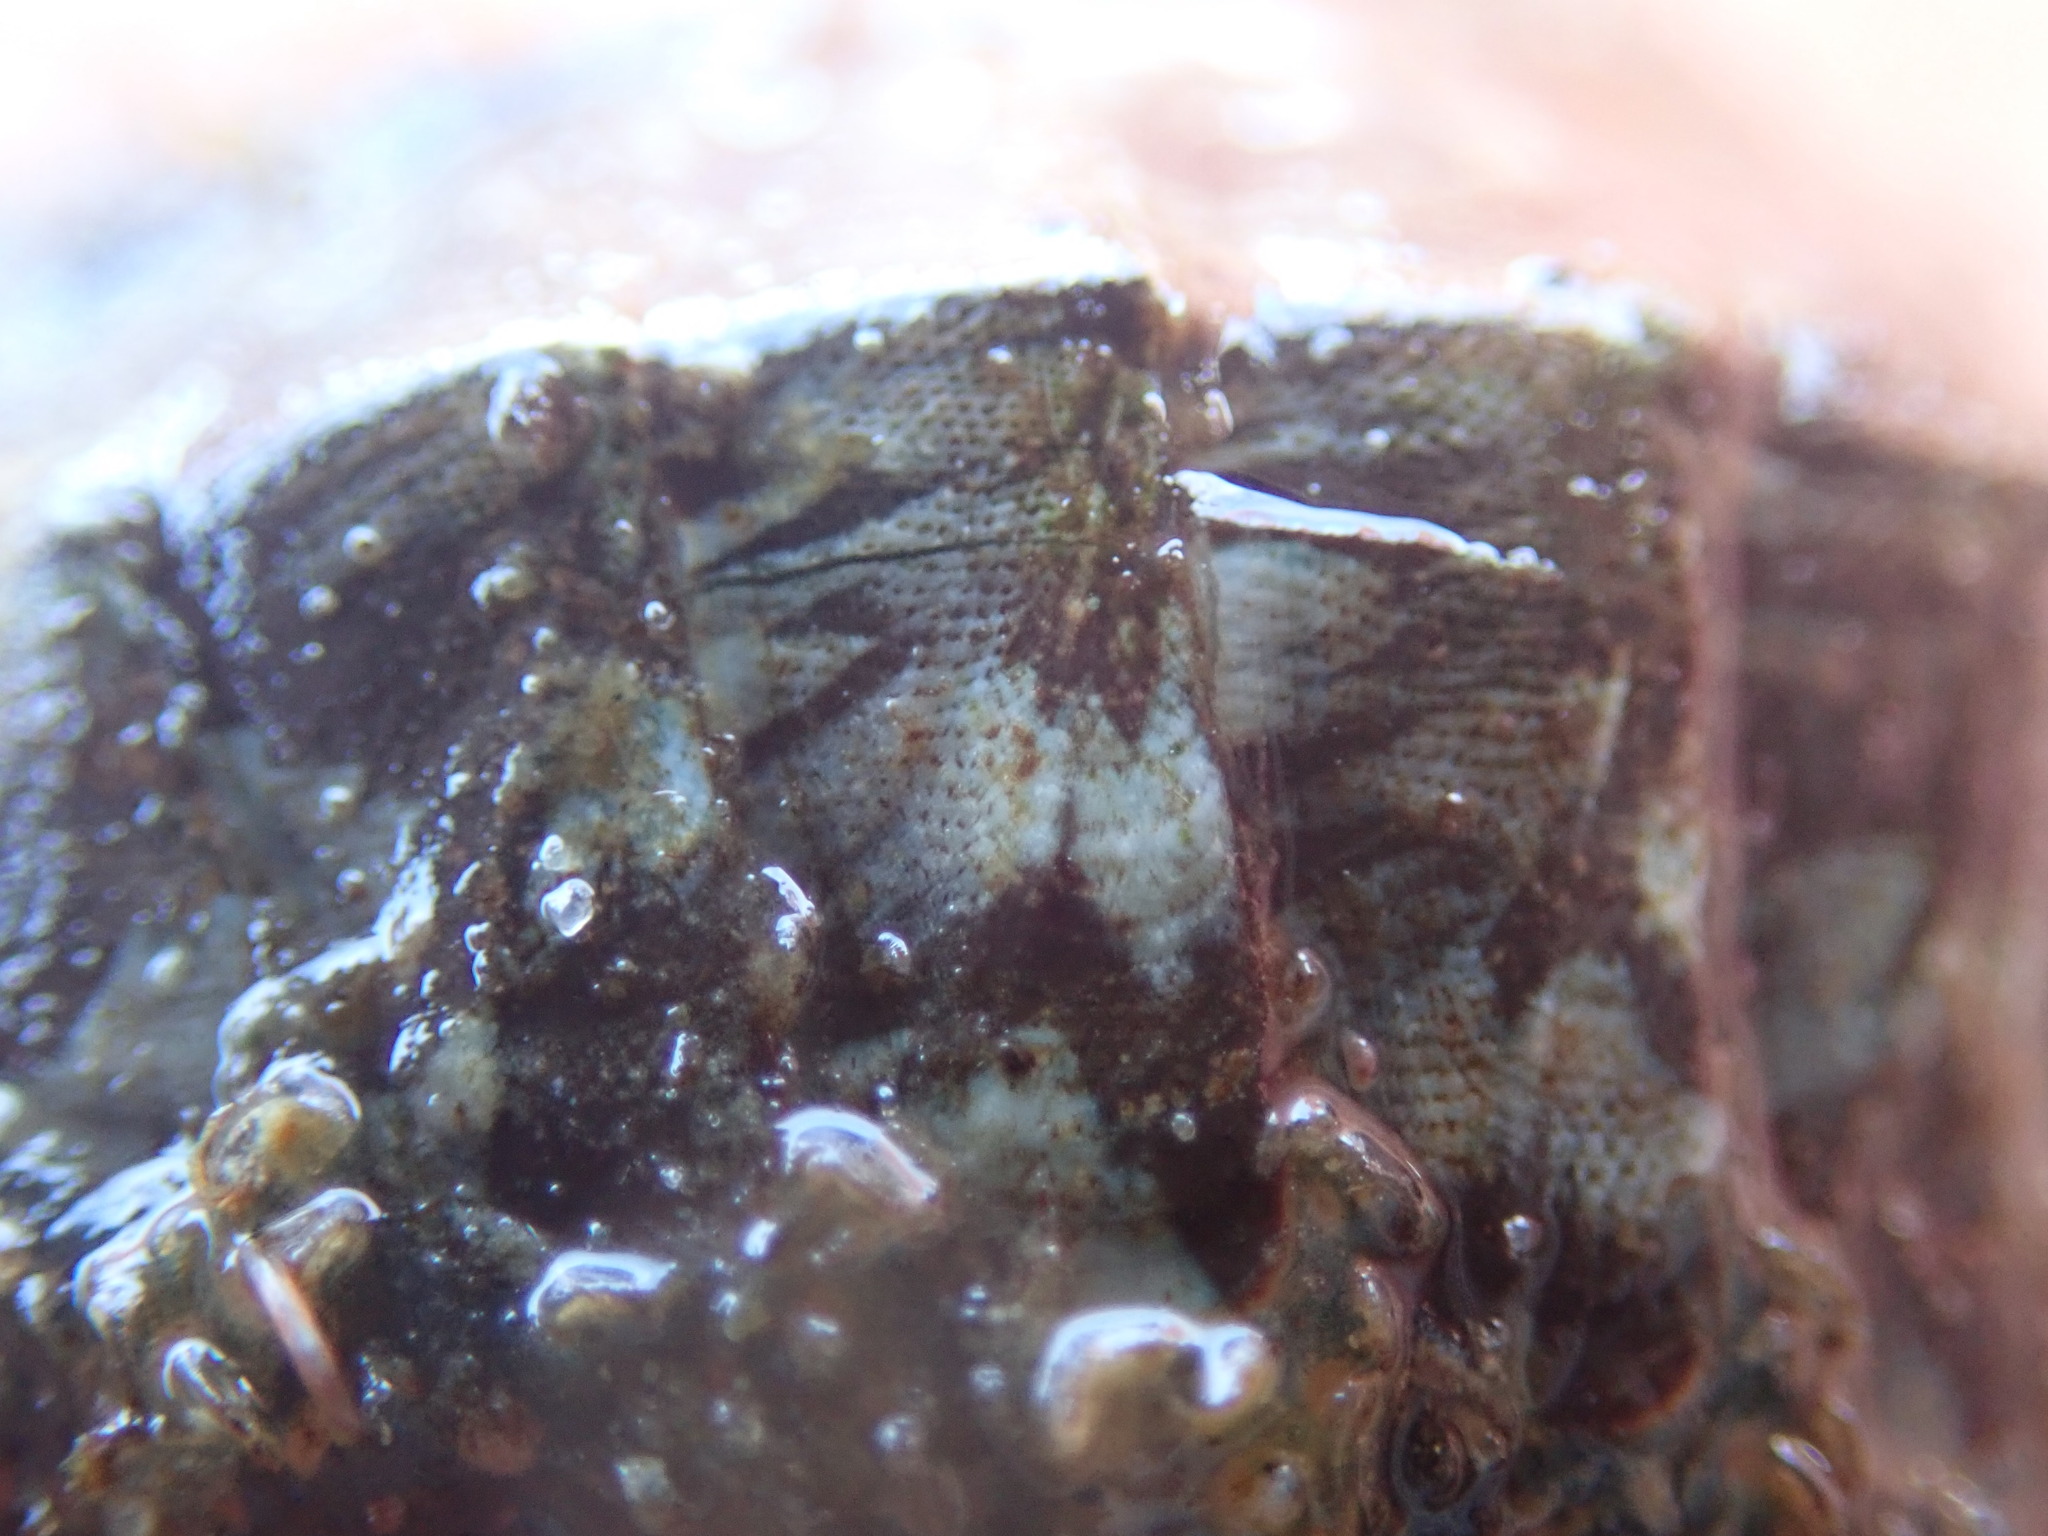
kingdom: Animalia
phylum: Mollusca
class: Polyplacophora
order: Chitonida
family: Mopaliidae
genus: Mopalia
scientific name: Mopalia lignosa
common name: Woody chiton
